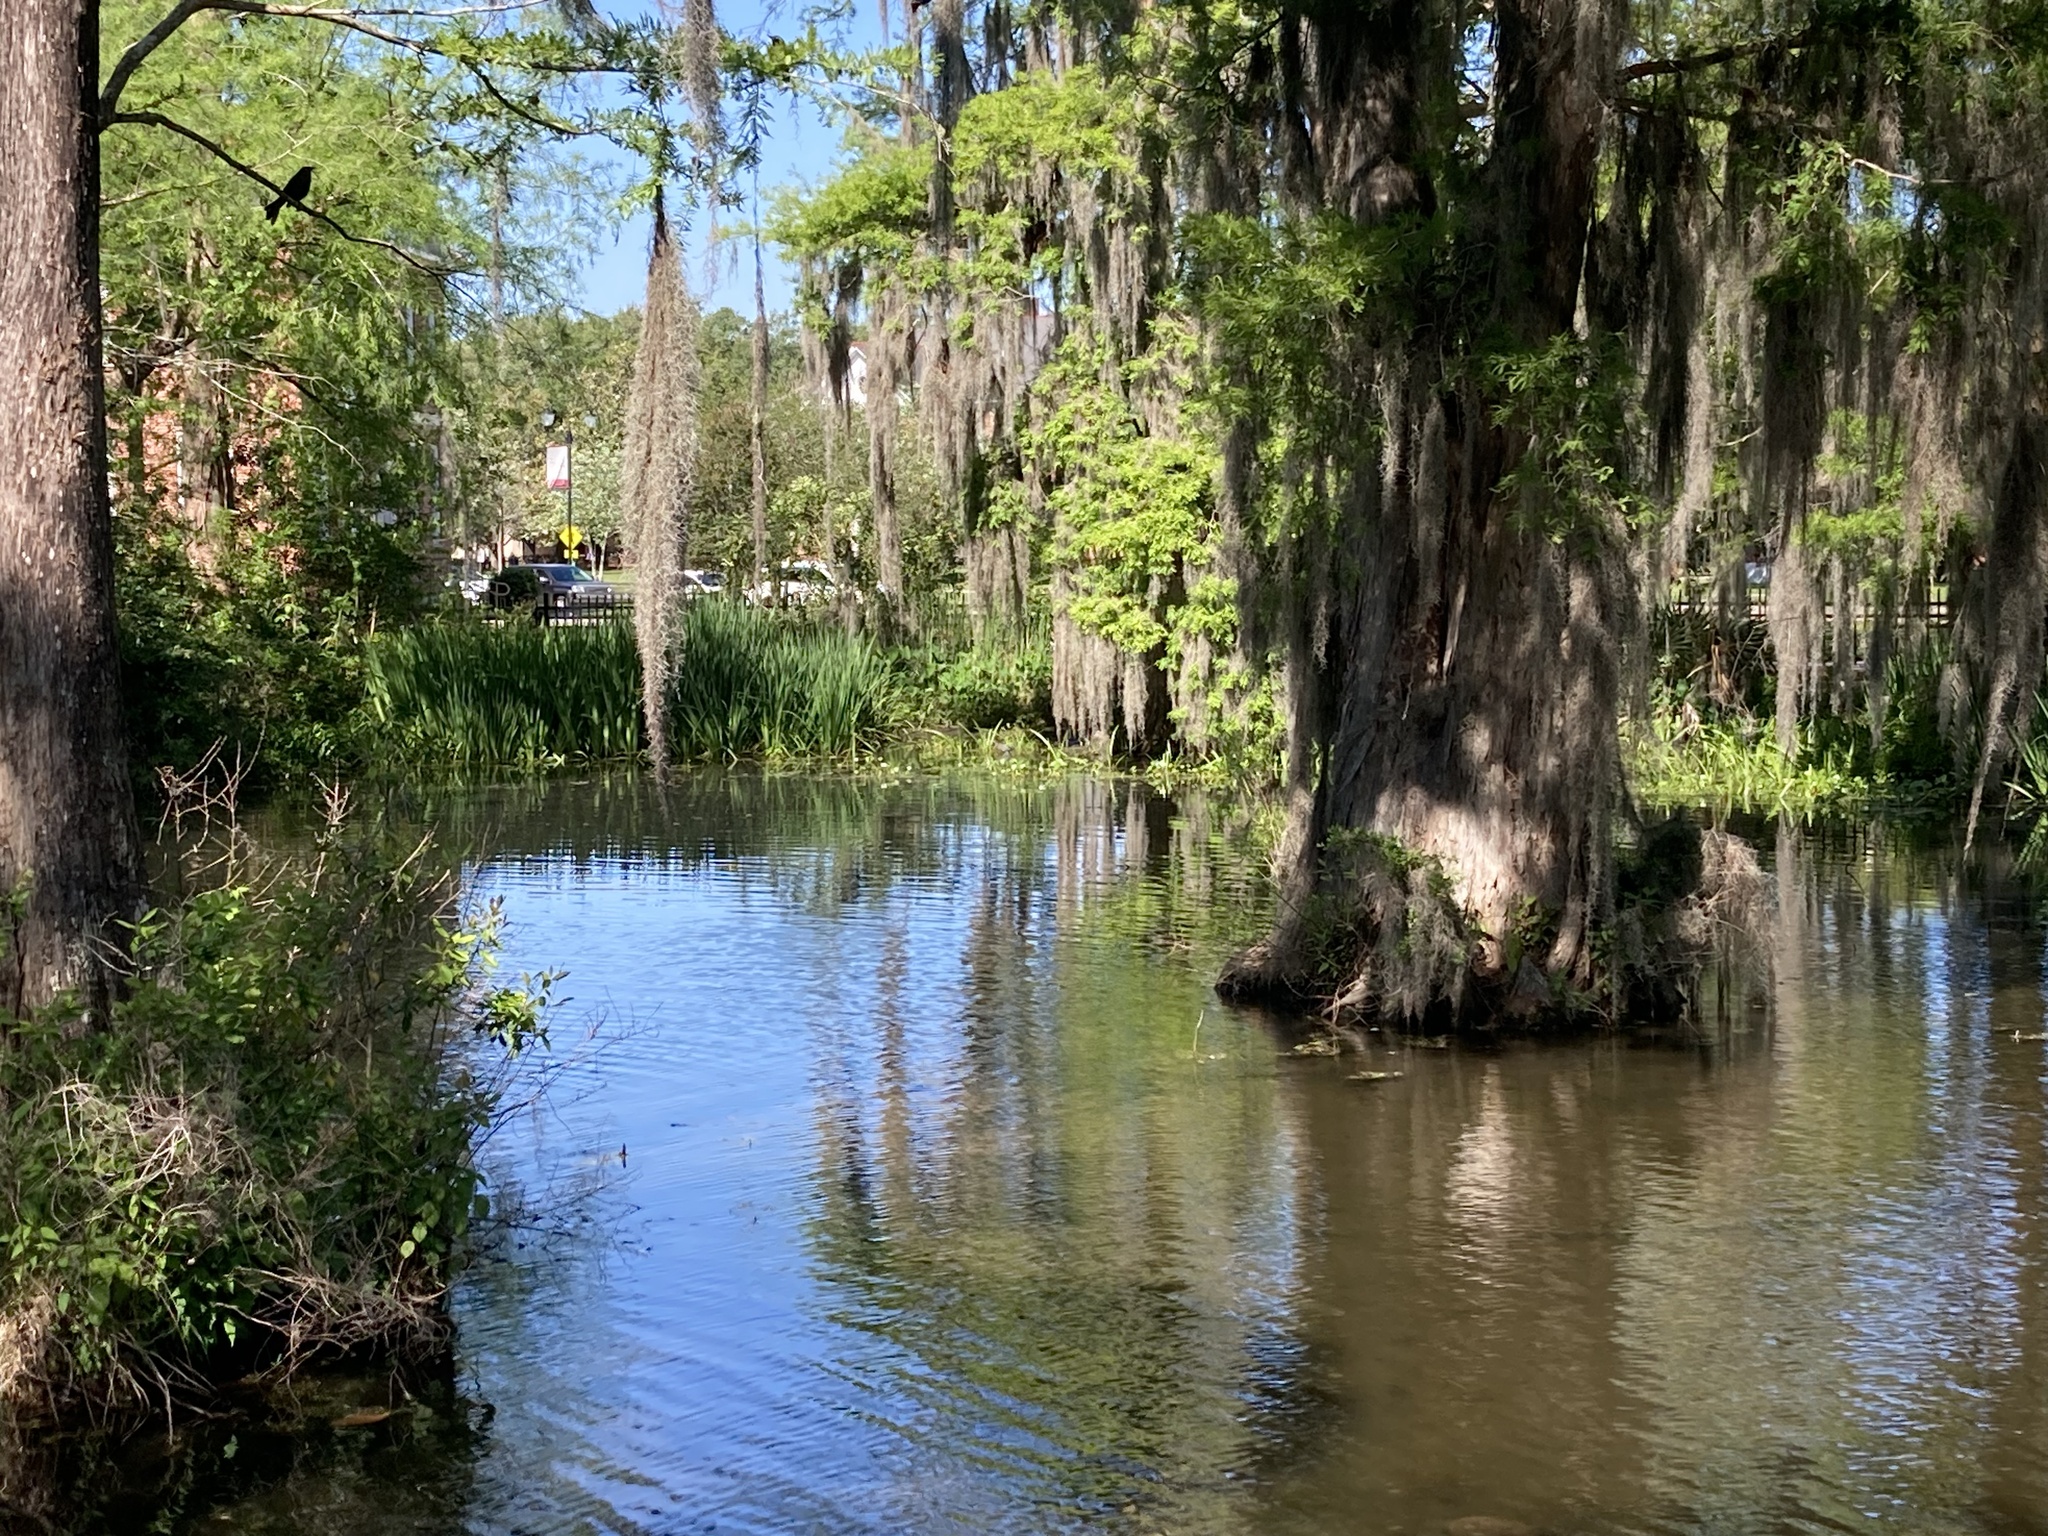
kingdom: Animalia
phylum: Chordata
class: Aves
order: Passeriformes
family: Icteridae
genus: Quiscalus
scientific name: Quiscalus quiscula
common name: Common grackle
